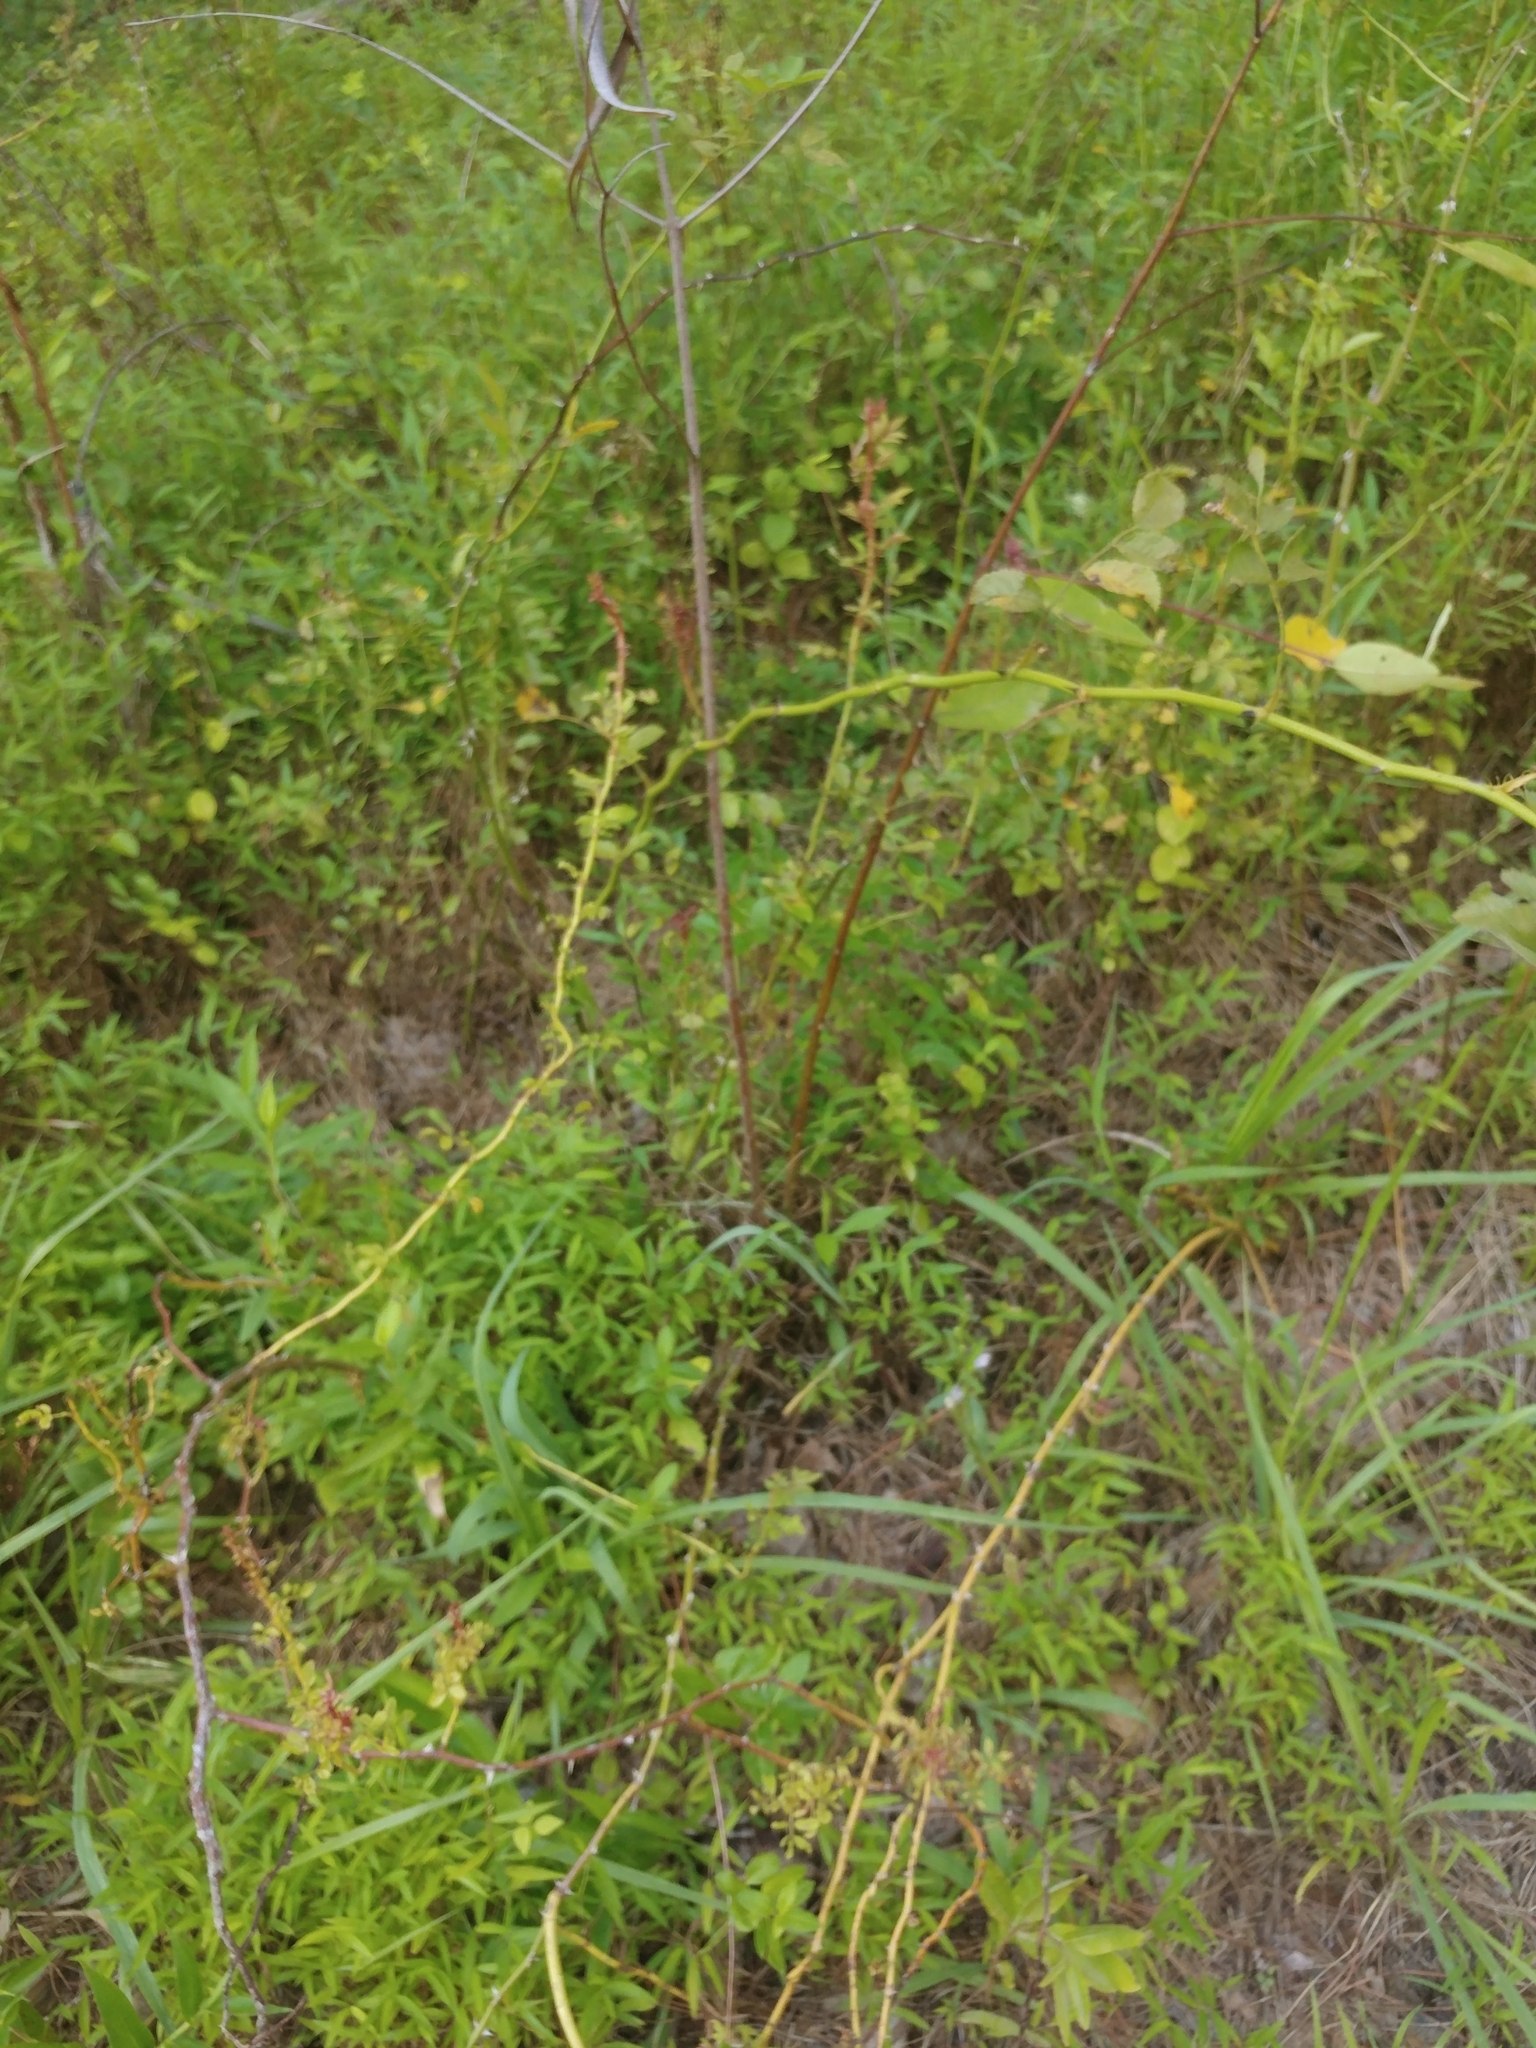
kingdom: Plantae
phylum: Tracheophyta
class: Magnoliopsida
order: Rosales
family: Rosaceae
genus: Rosa
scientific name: Rosa multiflora
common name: Multiflora rose
